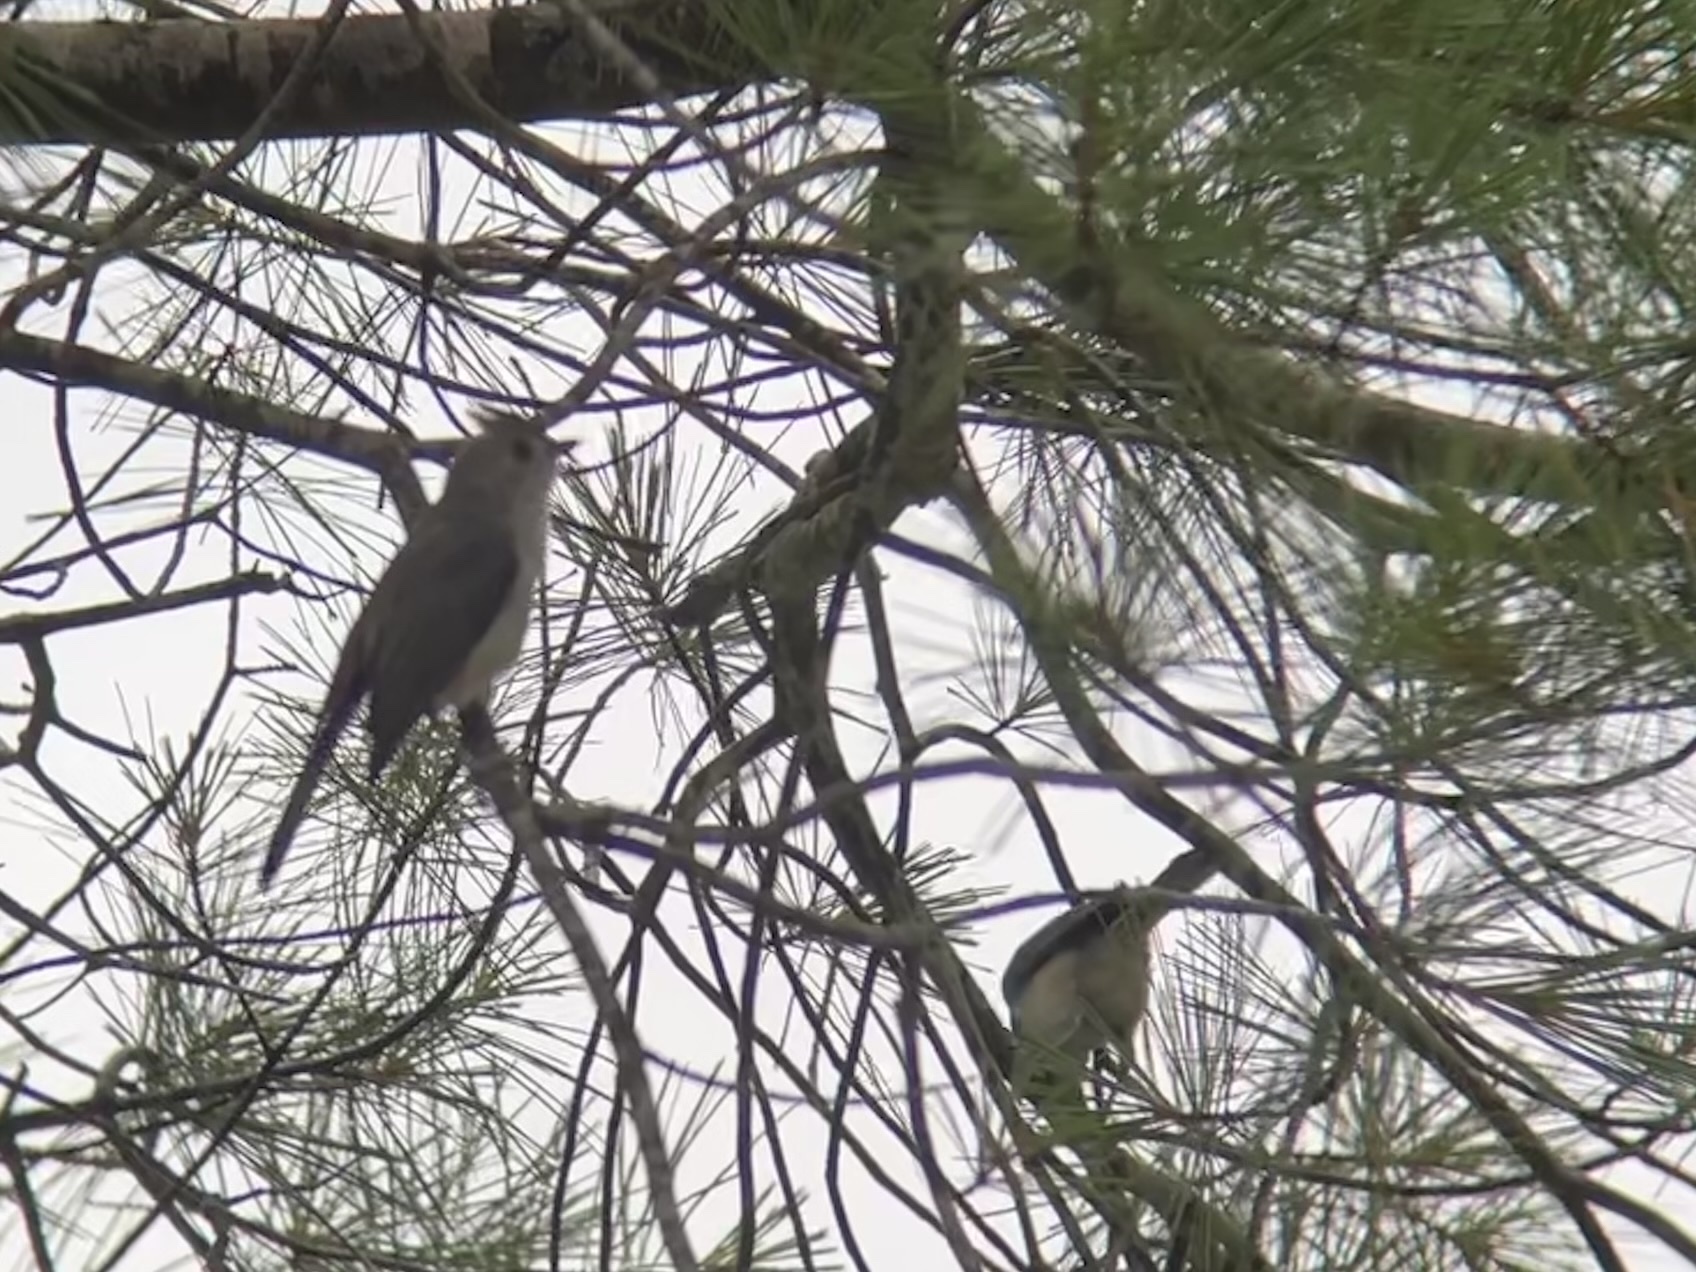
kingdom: Animalia
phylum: Chordata
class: Aves
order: Passeriformes
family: Paridae
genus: Baeolophus
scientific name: Baeolophus bicolor
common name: Tufted titmouse
